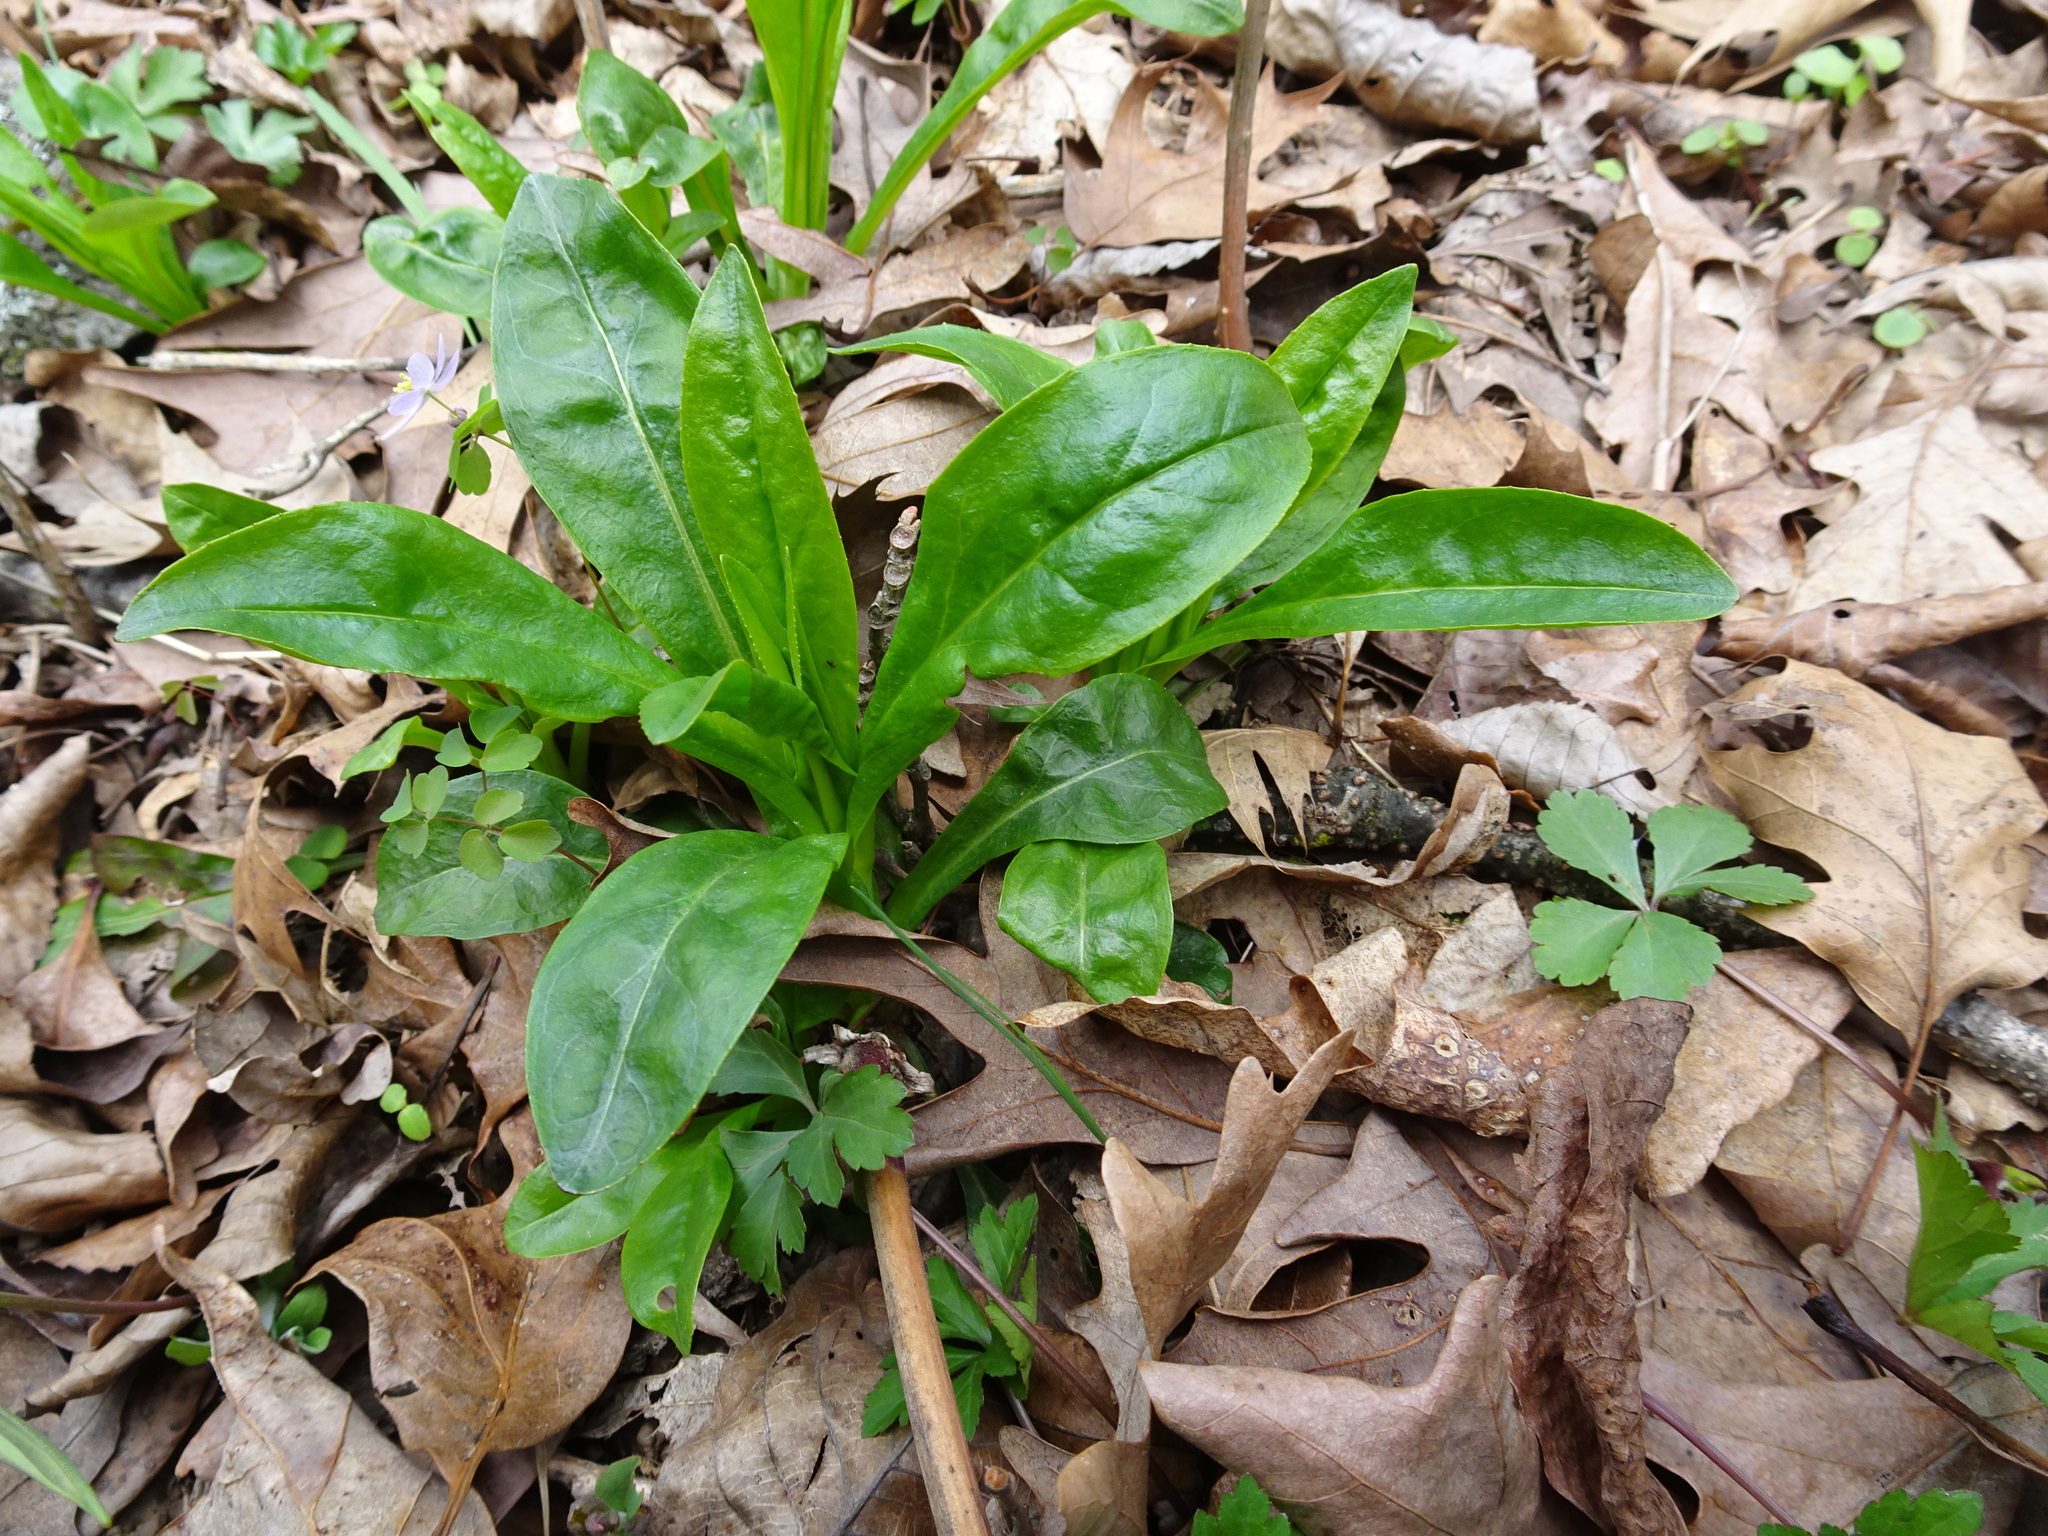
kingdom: Plantae
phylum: Tracheophyta
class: Magnoliopsida
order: Lamiales
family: Plantaginaceae
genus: Penstemon
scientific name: Penstemon digitalis
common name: Foxglove beardtongue
